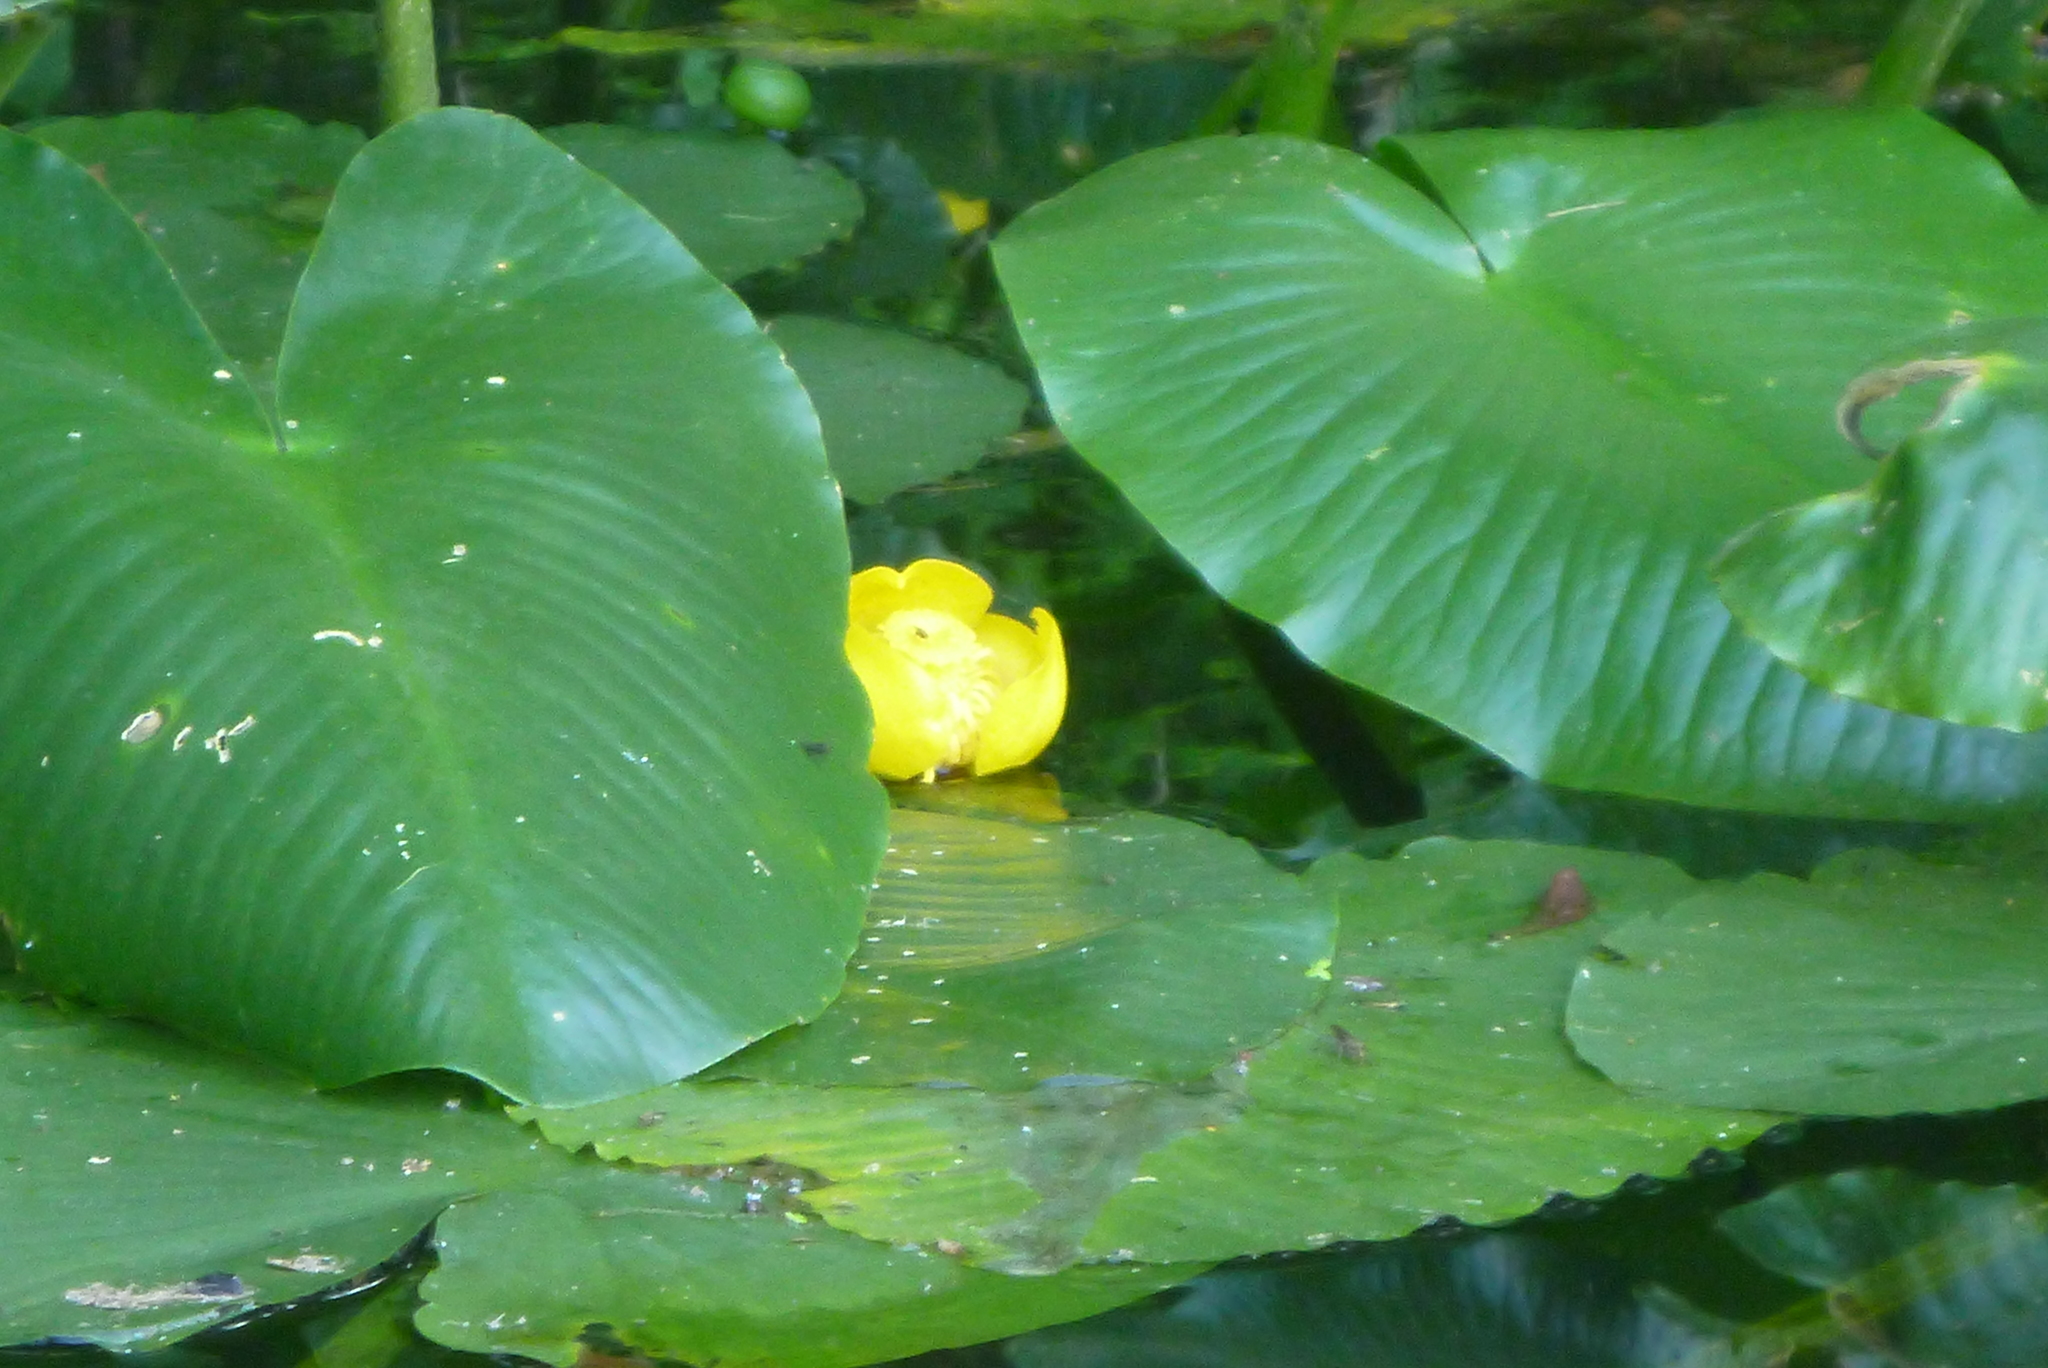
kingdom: Plantae
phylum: Tracheophyta
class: Magnoliopsida
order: Nymphaeales
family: Nymphaeaceae
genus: Nuphar
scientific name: Nuphar advena
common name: Spatter-dock
